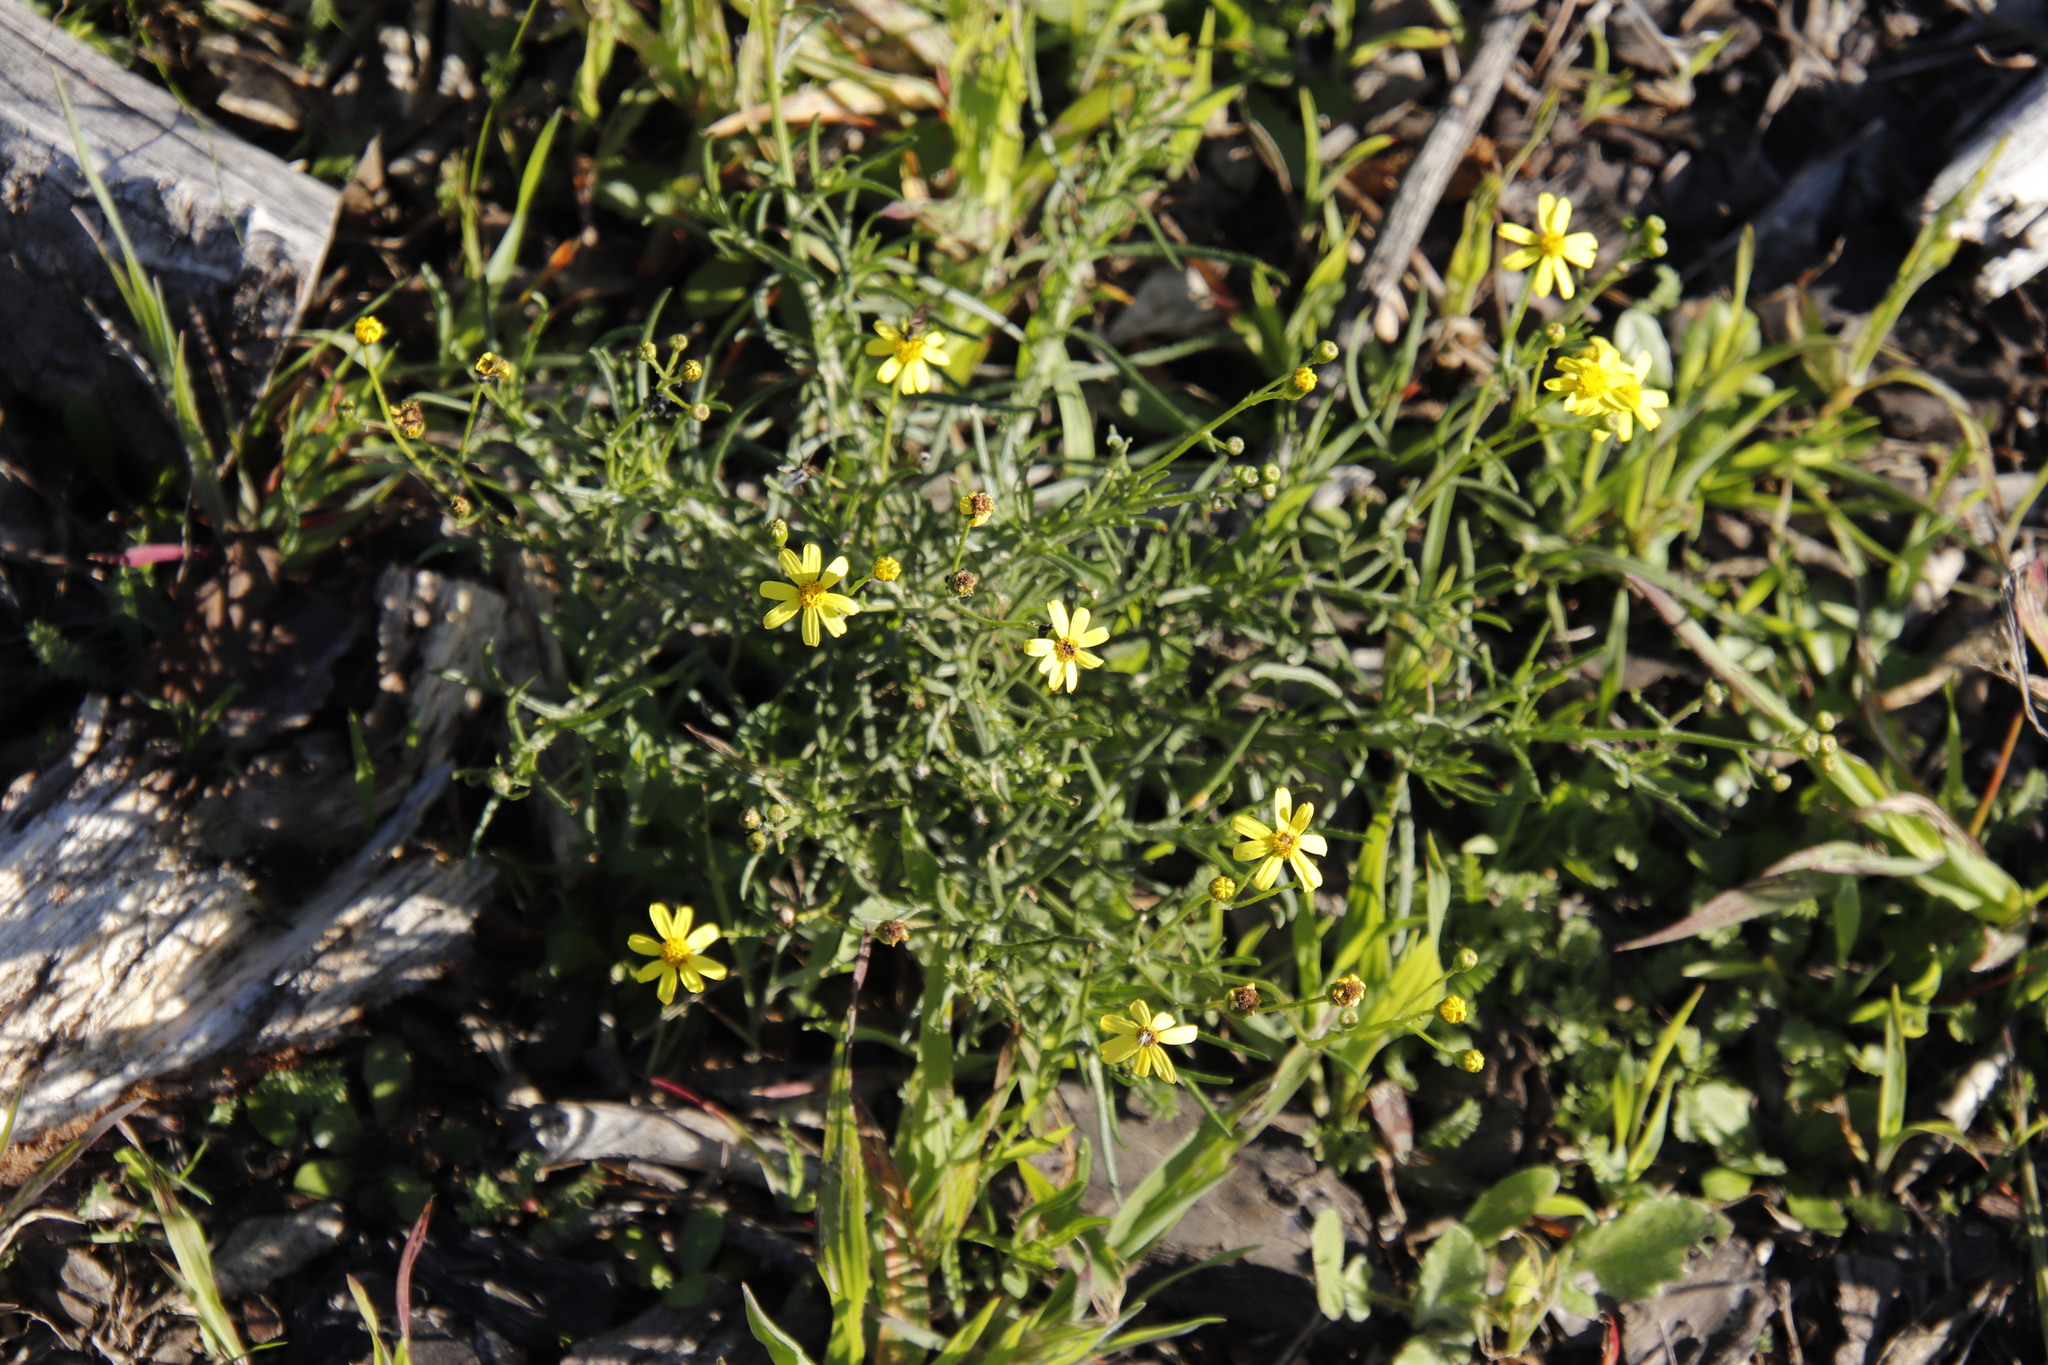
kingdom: Plantae
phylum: Tracheophyta
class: Magnoliopsida
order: Asterales
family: Asteraceae
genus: Senecio
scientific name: Senecio burchellii
